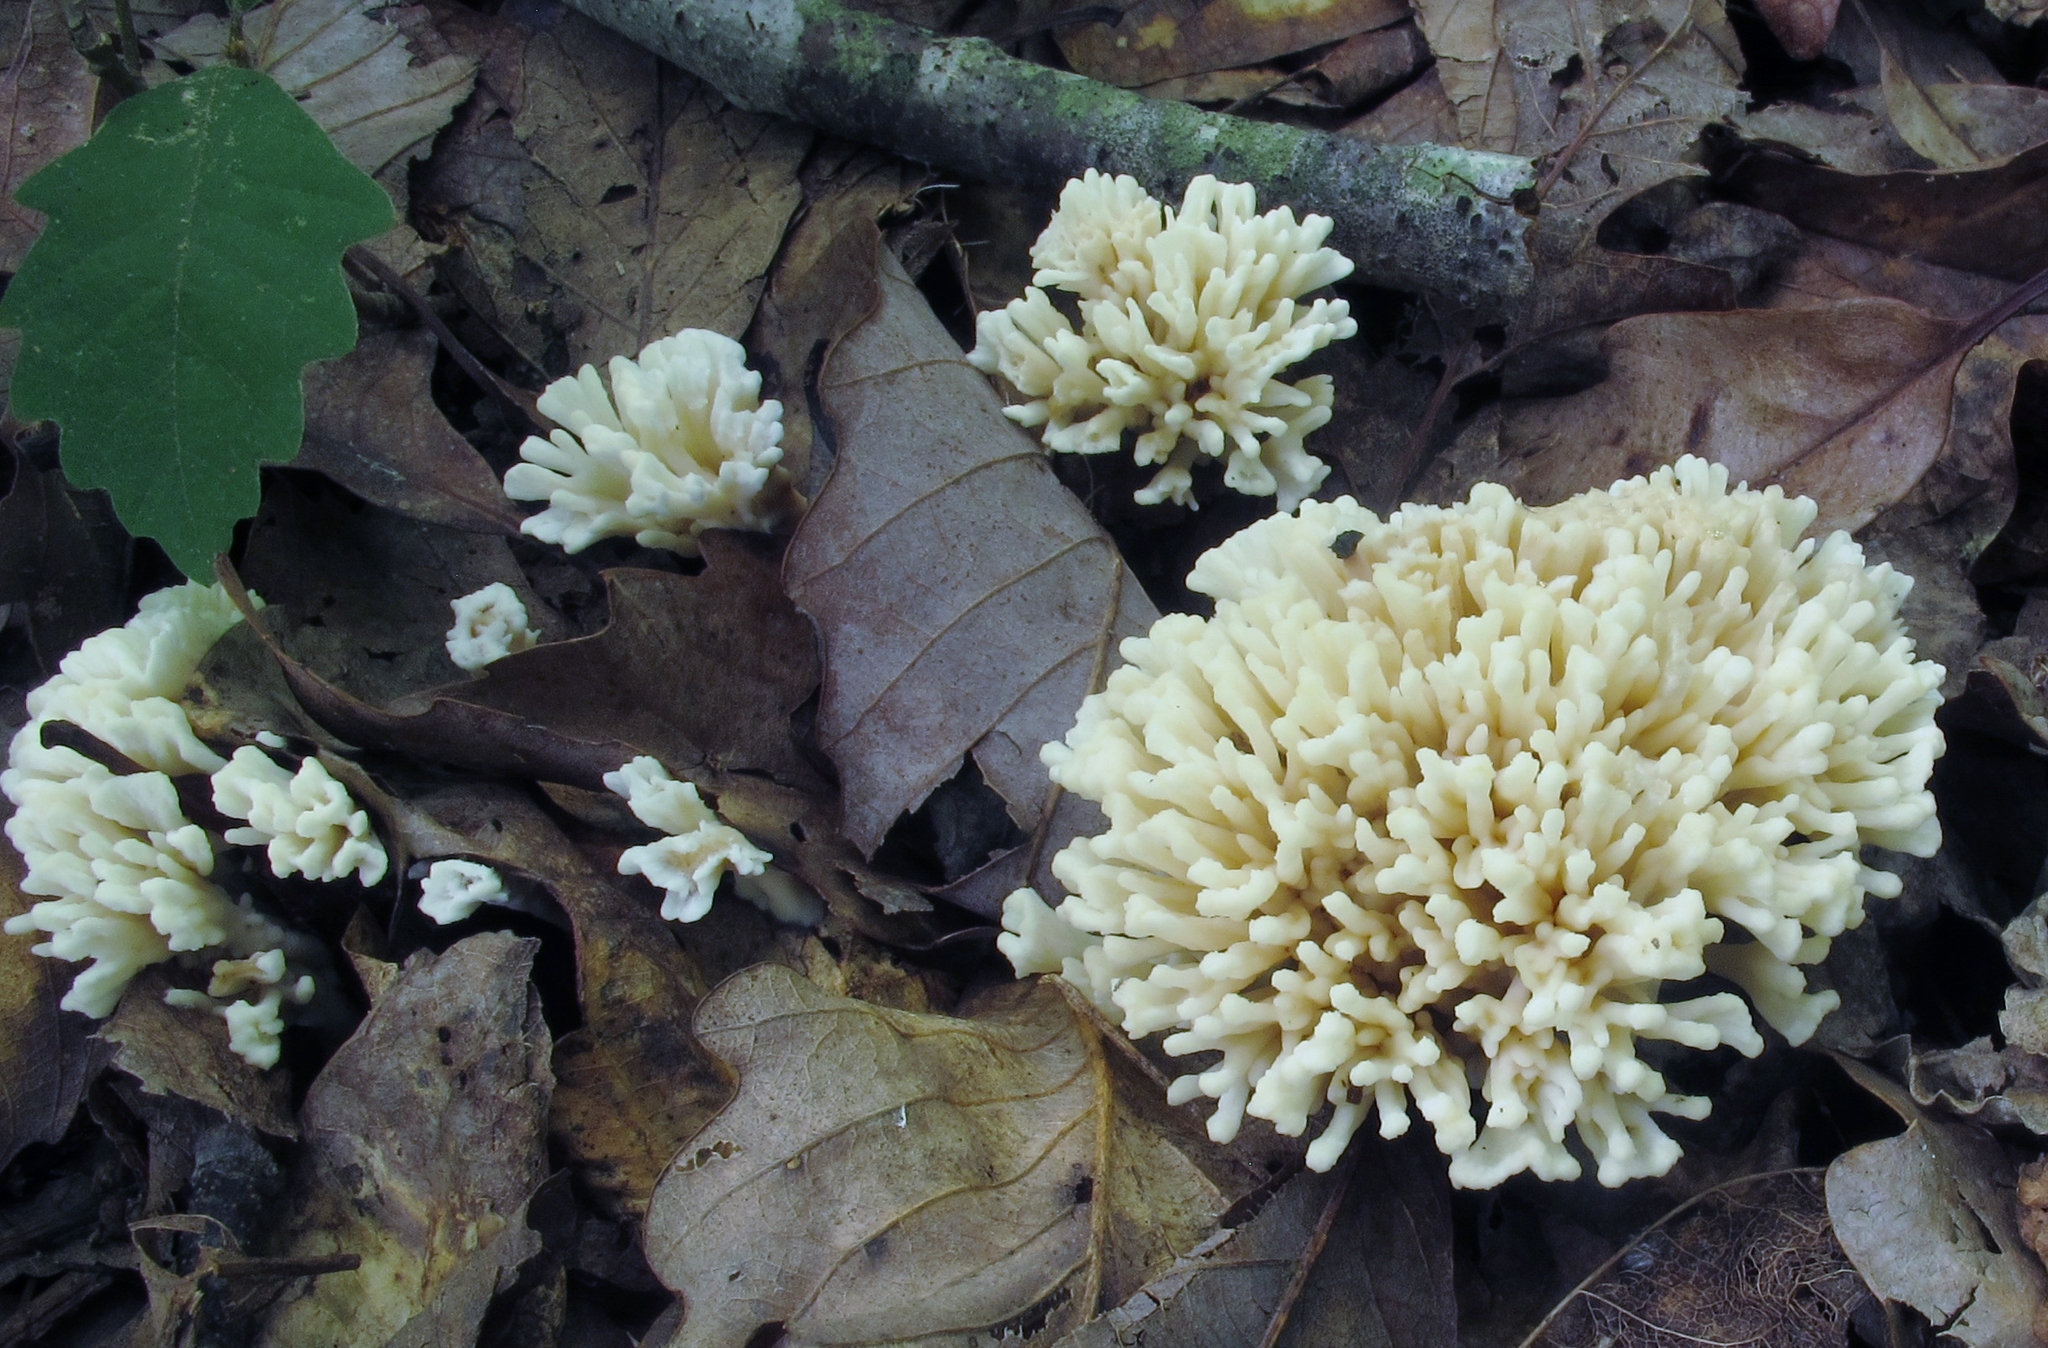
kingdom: Fungi
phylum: Basidiomycota
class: Agaricomycetes
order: Sebacinales
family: Sebacinaceae
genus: Sebacina
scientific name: Sebacina schweinitzii
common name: Jellied false coral fungus
